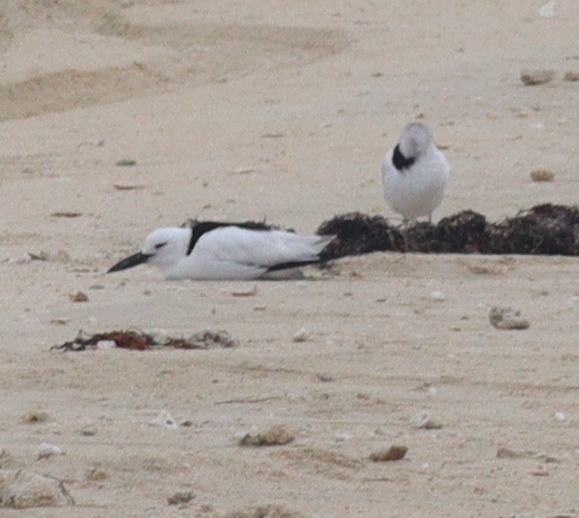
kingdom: Animalia
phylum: Chordata
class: Aves
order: Charadriiformes
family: Dromadidae
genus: Dromas
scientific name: Dromas ardeola
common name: Crab-plover
